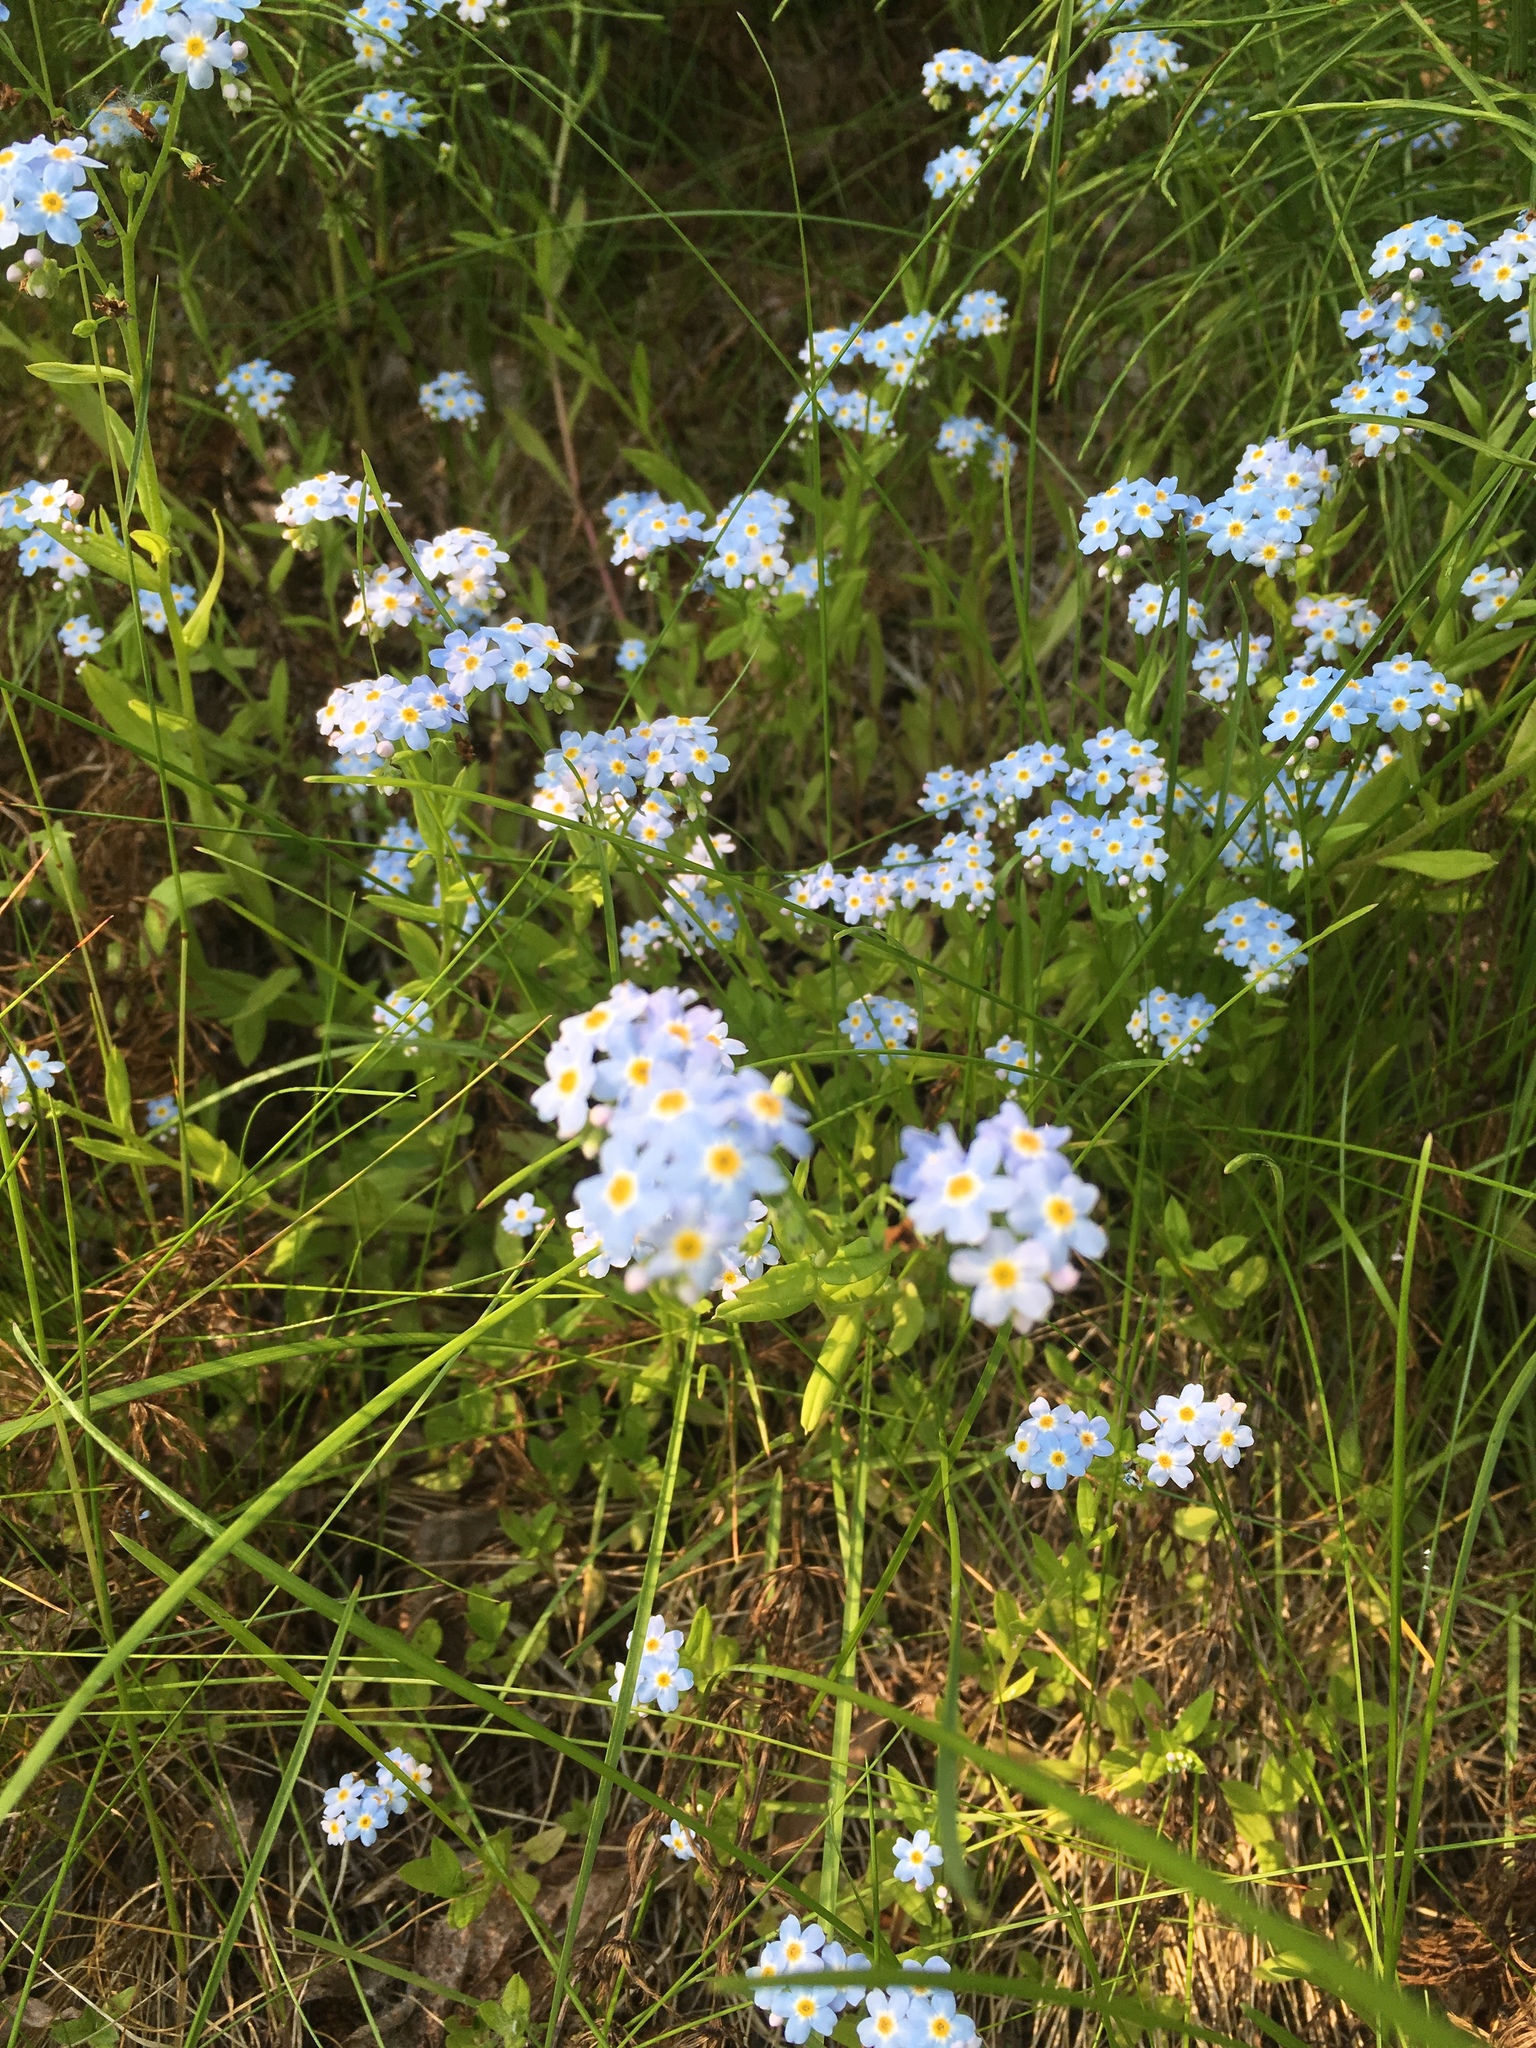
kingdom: Plantae
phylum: Tracheophyta
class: Magnoliopsida
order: Boraginales
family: Boraginaceae
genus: Myosotis
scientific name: Myosotis scorpioides
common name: Water forget-me-not
